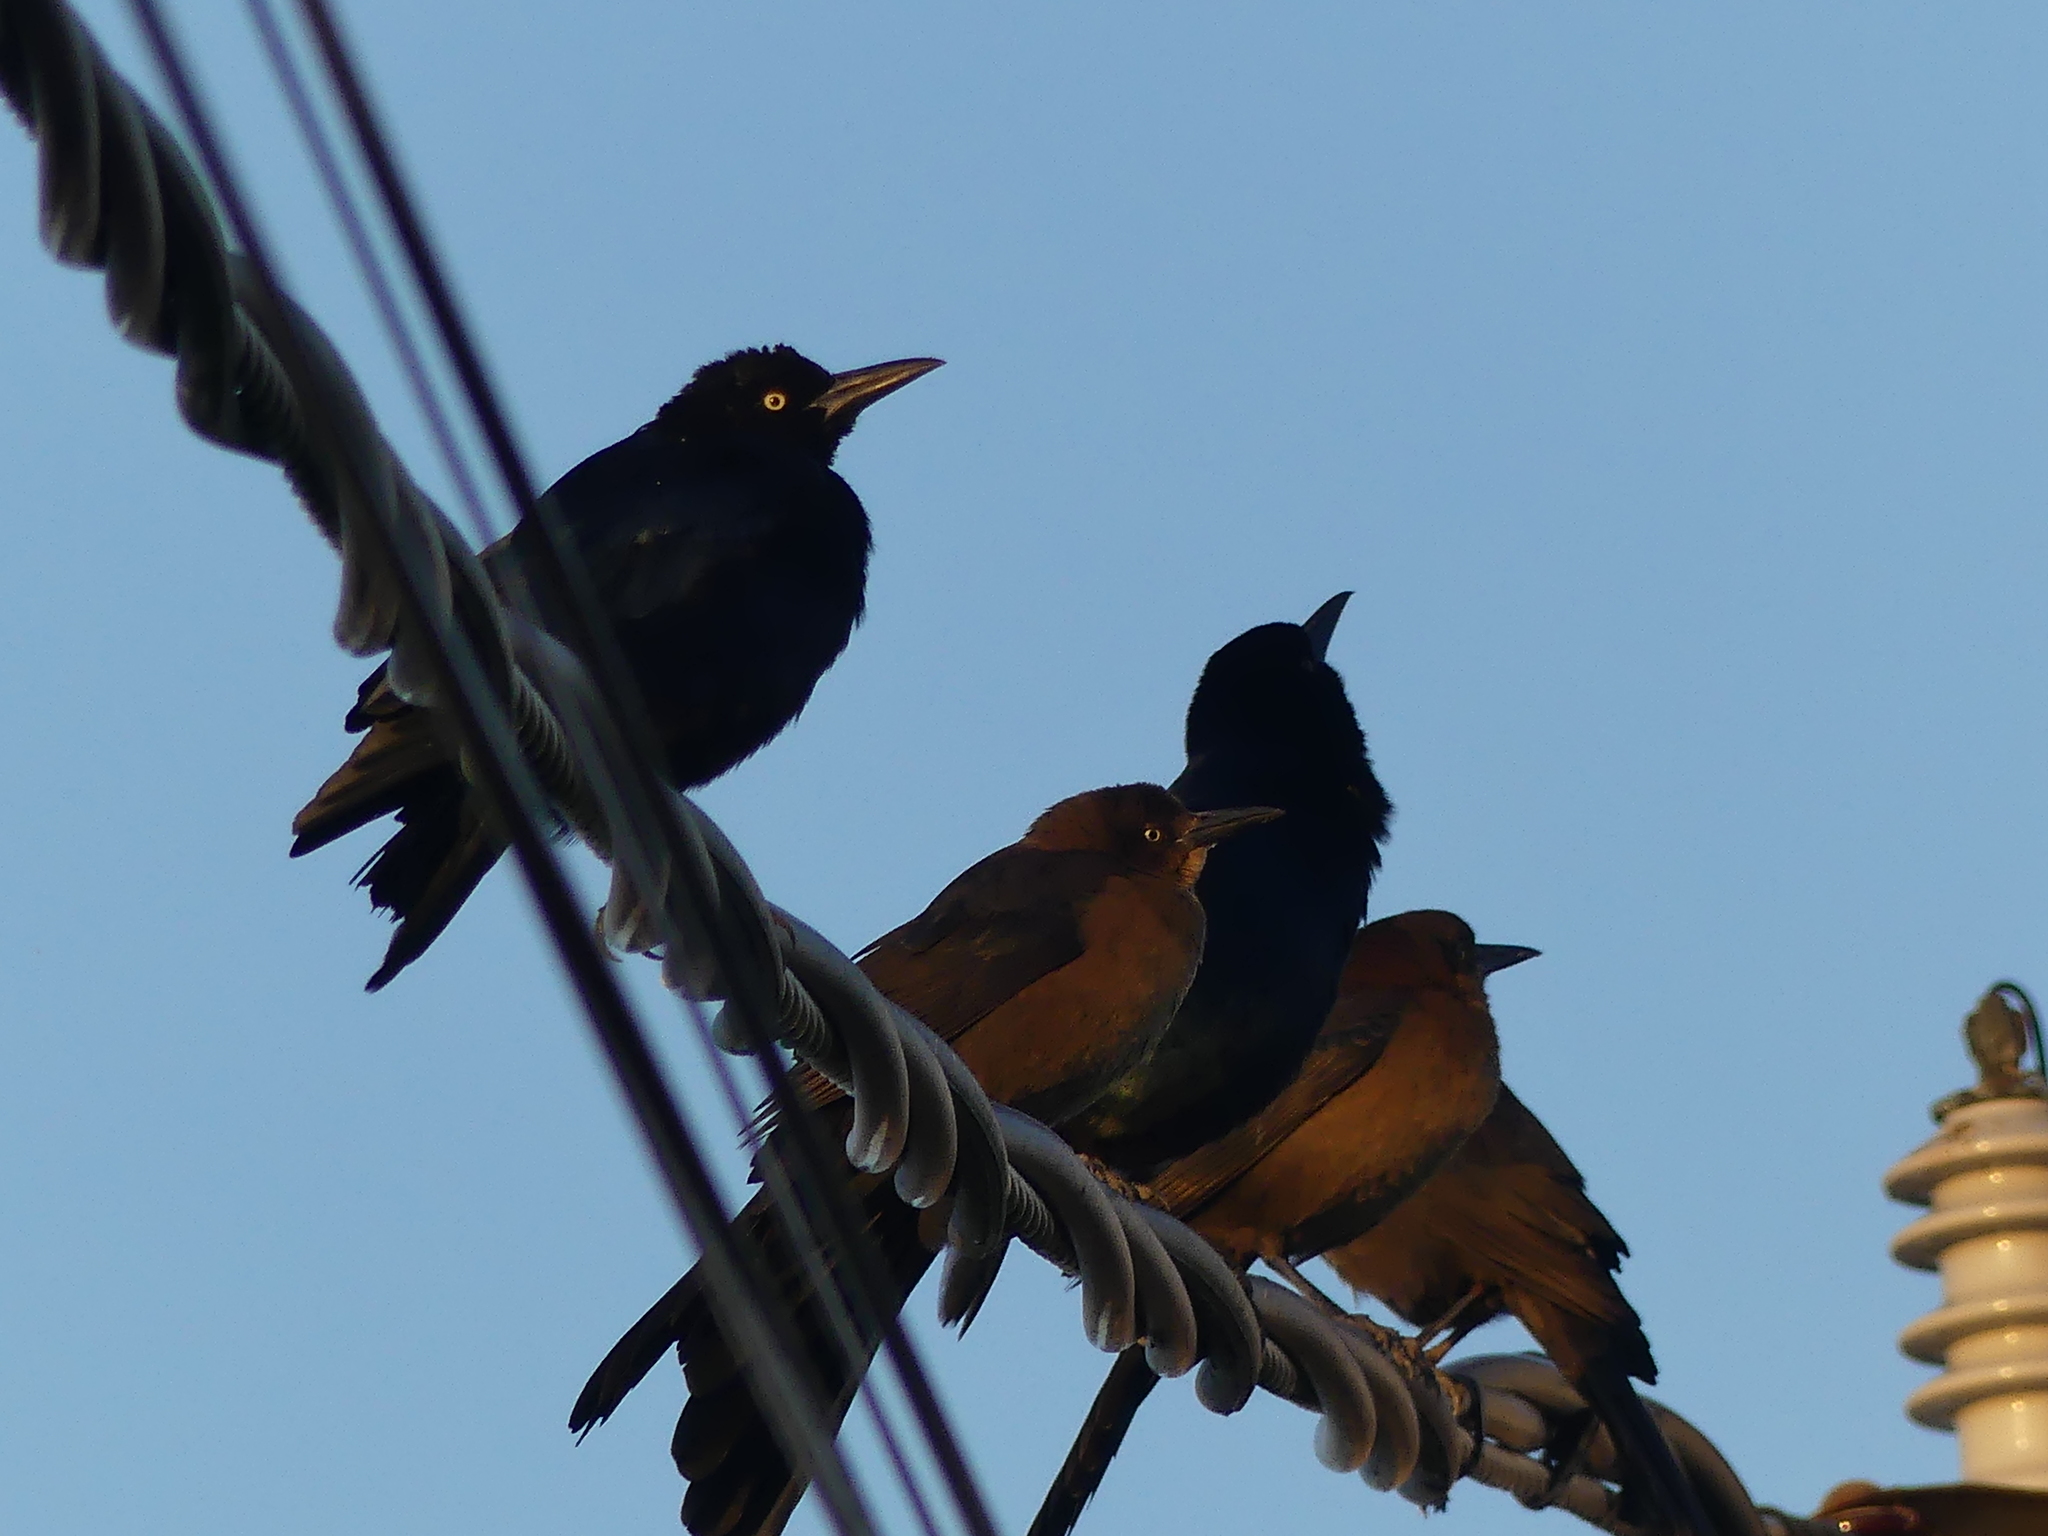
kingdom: Animalia
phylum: Chordata
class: Aves
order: Passeriformes
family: Icteridae
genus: Quiscalus
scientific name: Quiscalus mexicanus
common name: Great-tailed grackle
